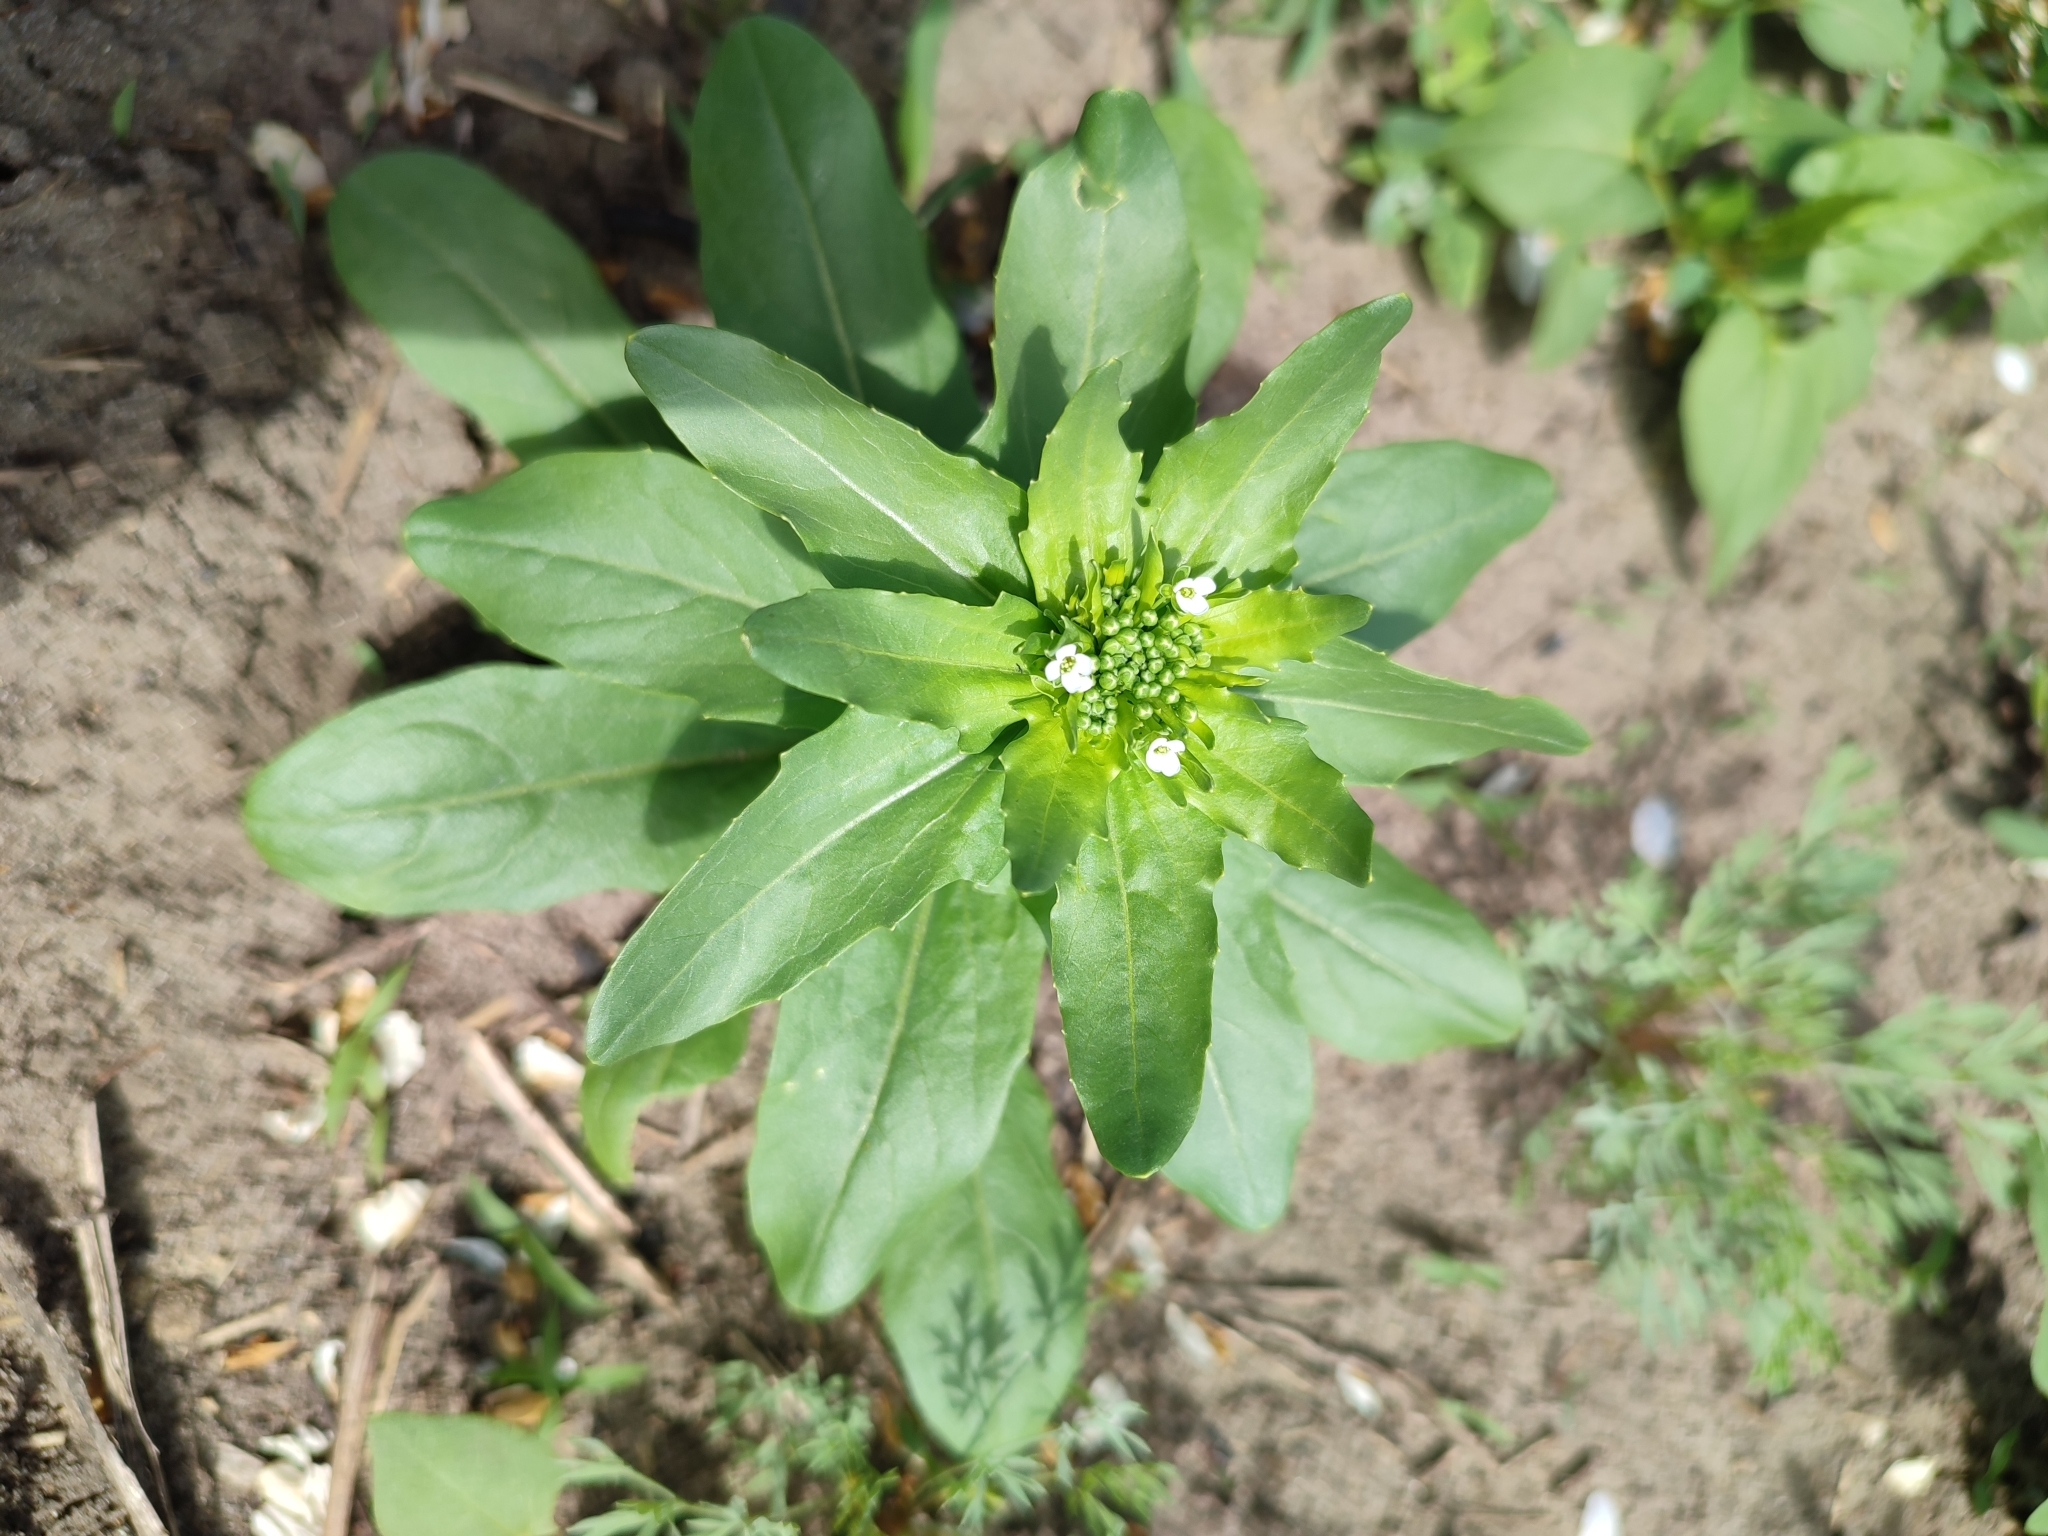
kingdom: Plantae
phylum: Tracheophyta
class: Magnoliopsida
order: Brassicales
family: Brassicaceae
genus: Thlaspi
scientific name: Thlaspi arvense
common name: Field pennycress
